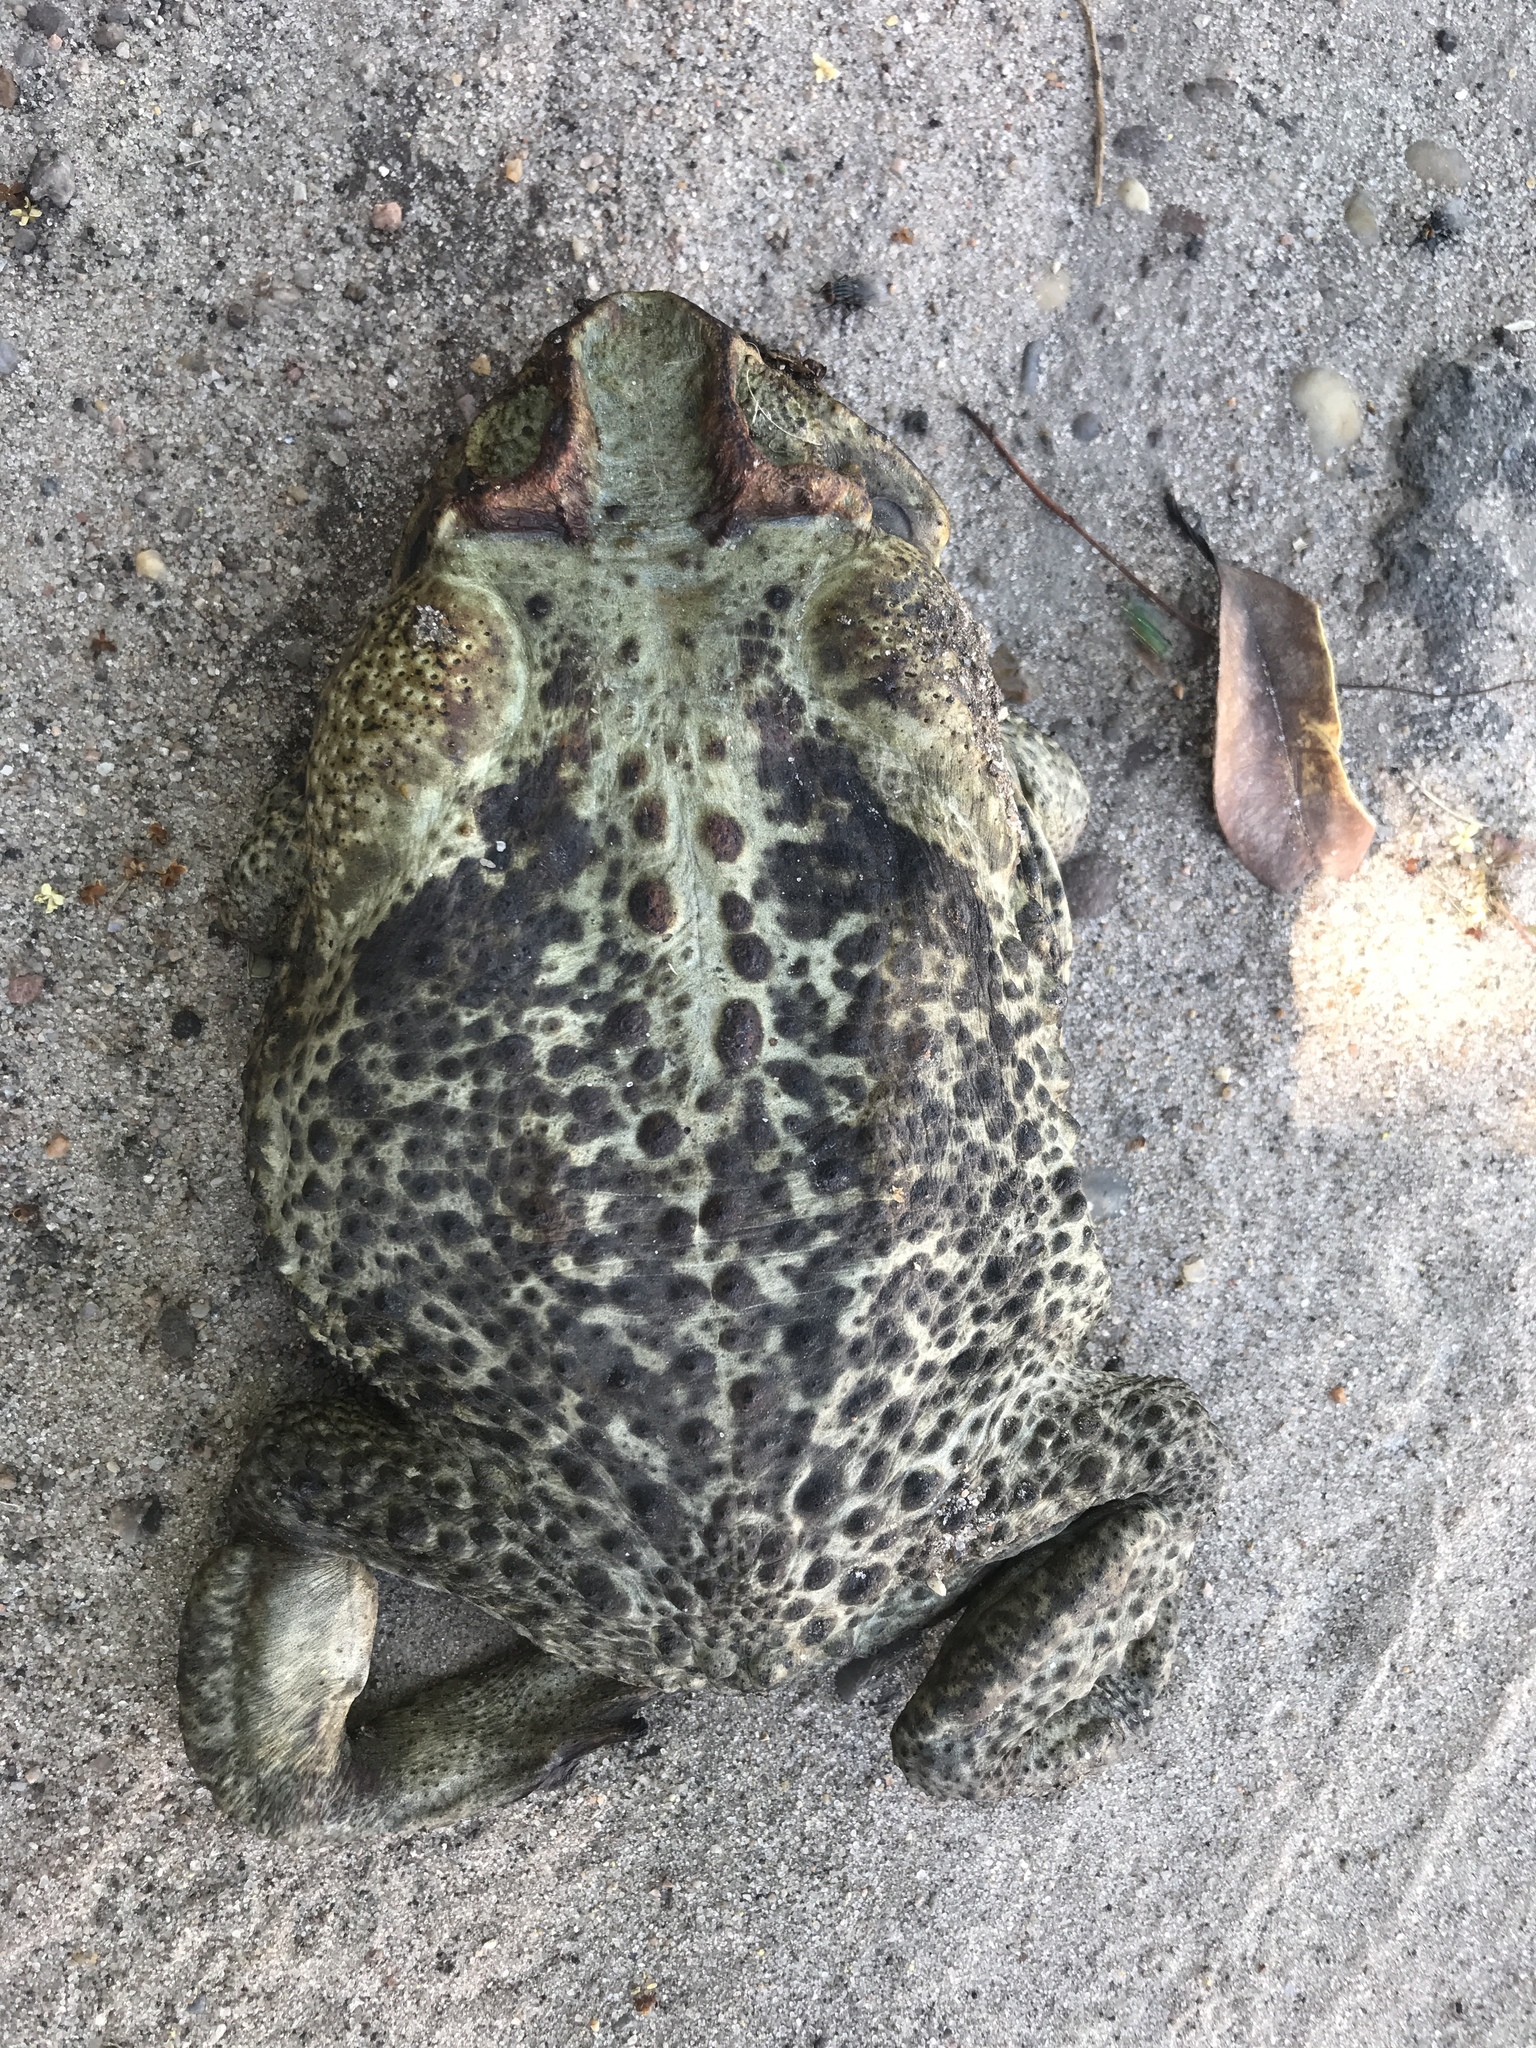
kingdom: Animalia
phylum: Chordata
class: Amphibia
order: Anura
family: Bufonidae
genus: Rhinella
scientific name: Rhinella diptycha
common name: Cope's toad
